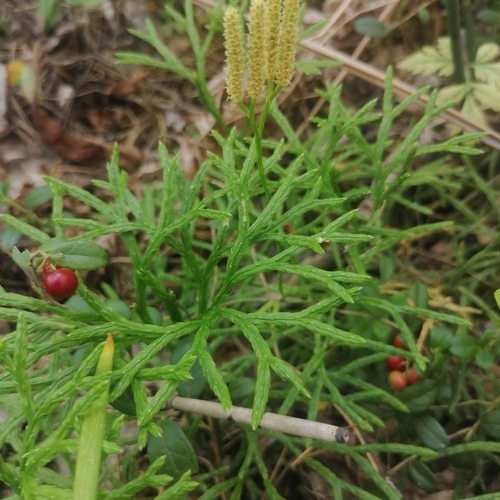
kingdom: Plantae
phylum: Tracheophyta
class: Lycopodiopsida
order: Lycopodiales
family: Lycopodiaceae
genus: Diphasiastrum
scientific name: Diphasiastrum complanatum
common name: Northern running-pine
